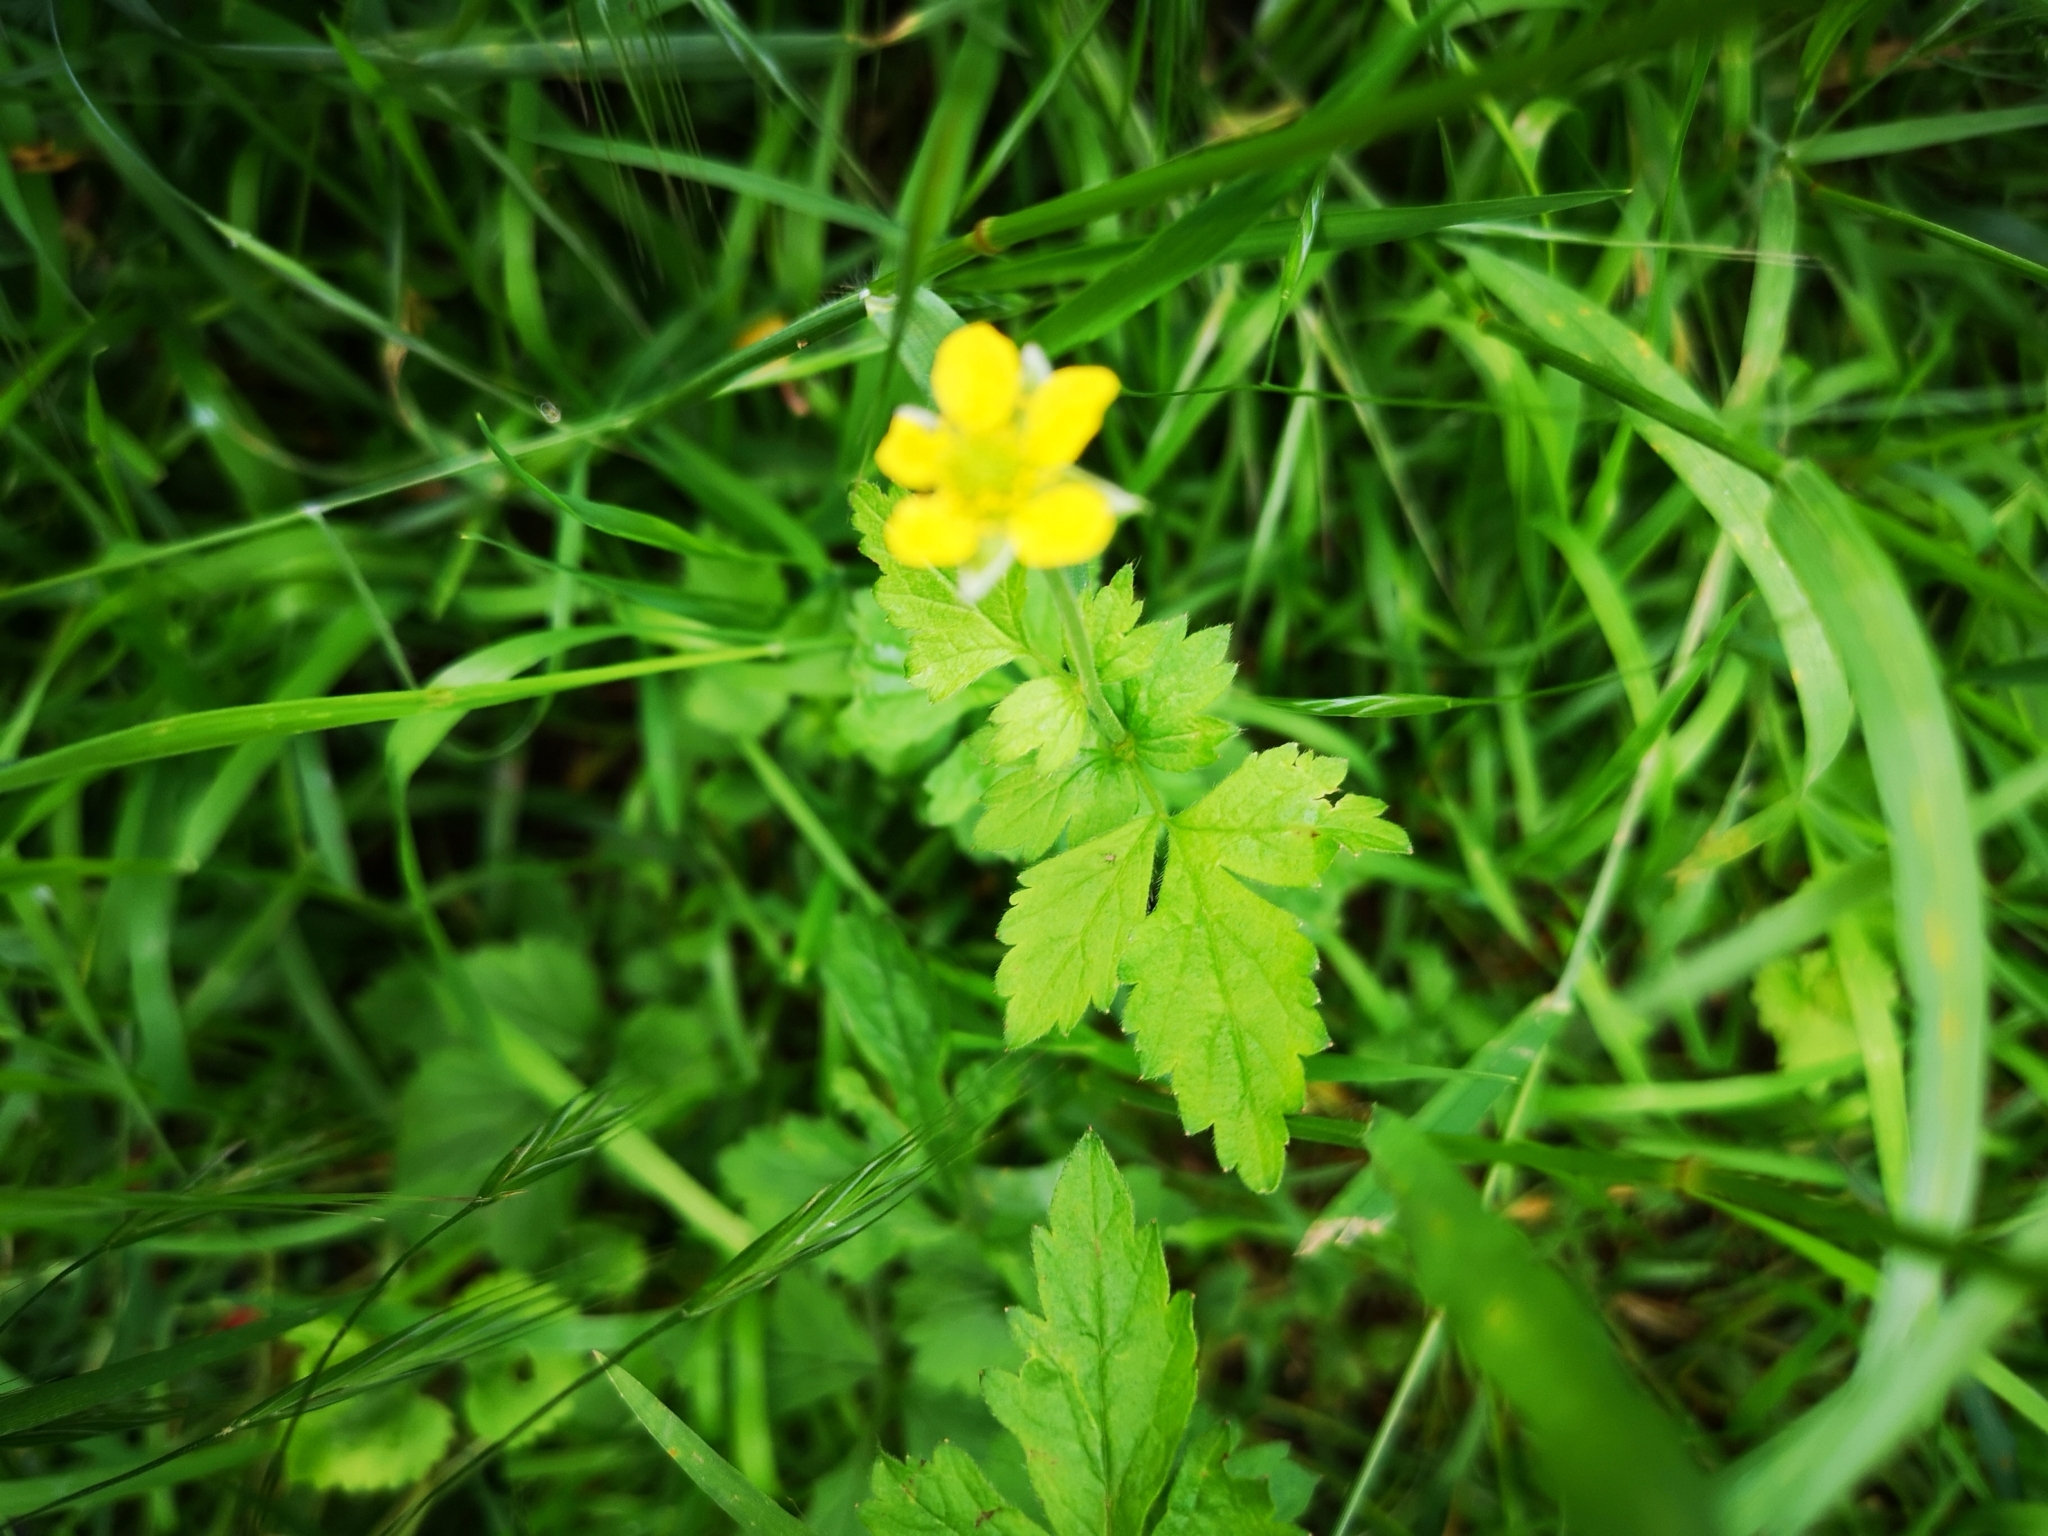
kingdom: Plantae
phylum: Tracheophyta
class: Magnoliopsida
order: Rosales
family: Rosaceae
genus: Geum
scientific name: Geum urbanum
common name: Wood avens
